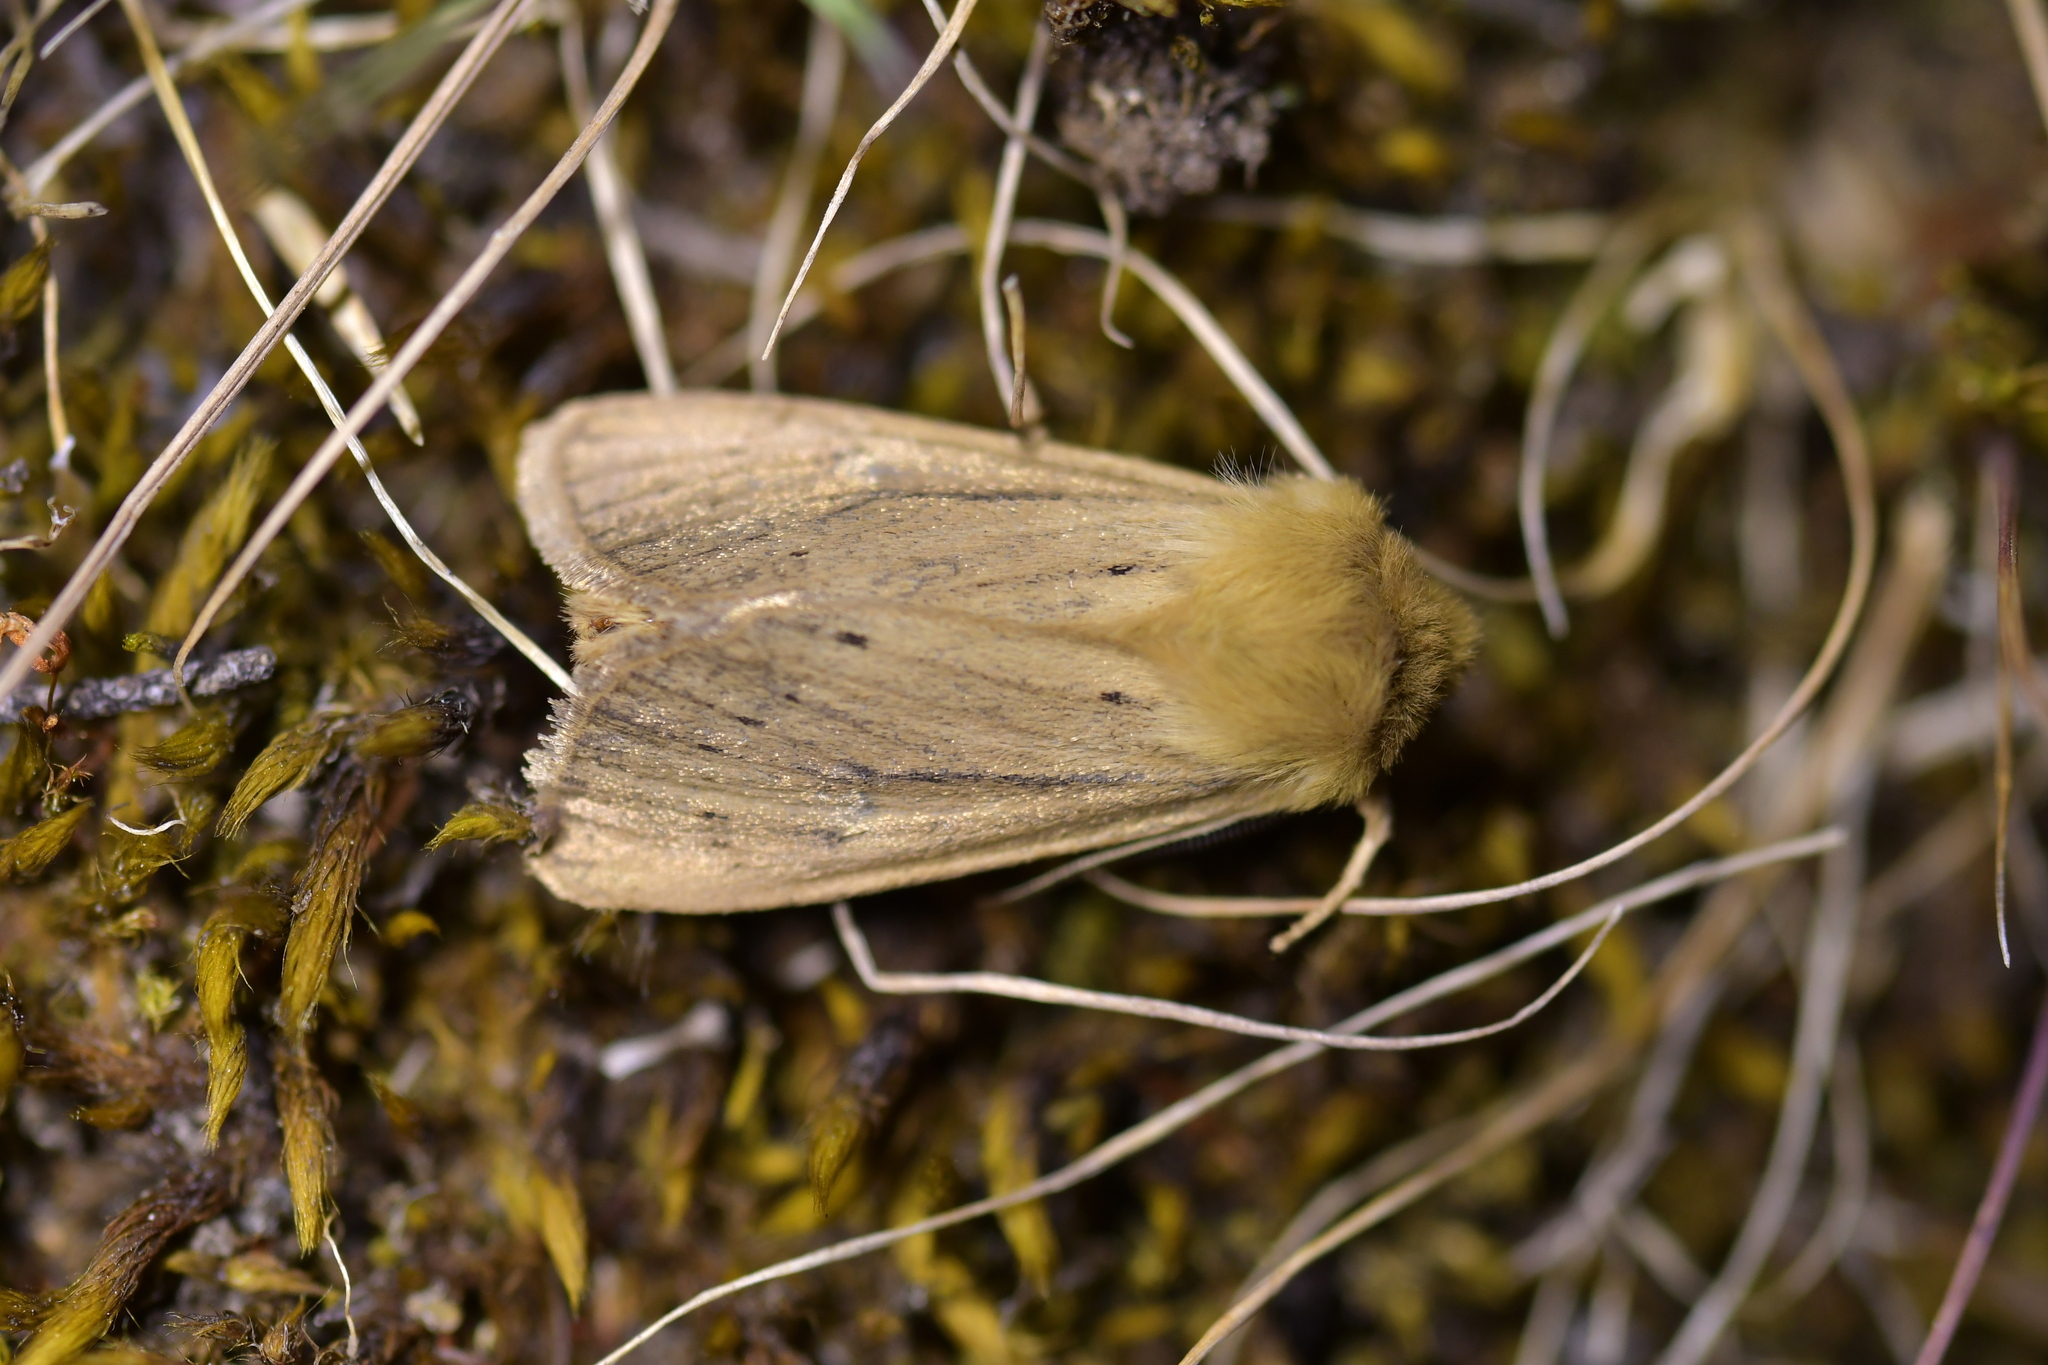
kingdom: Animalia
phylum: Arthropoda
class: Insecta
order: Lepidoptera
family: Noctuidae
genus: Ichneutica
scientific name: Ichneutica
